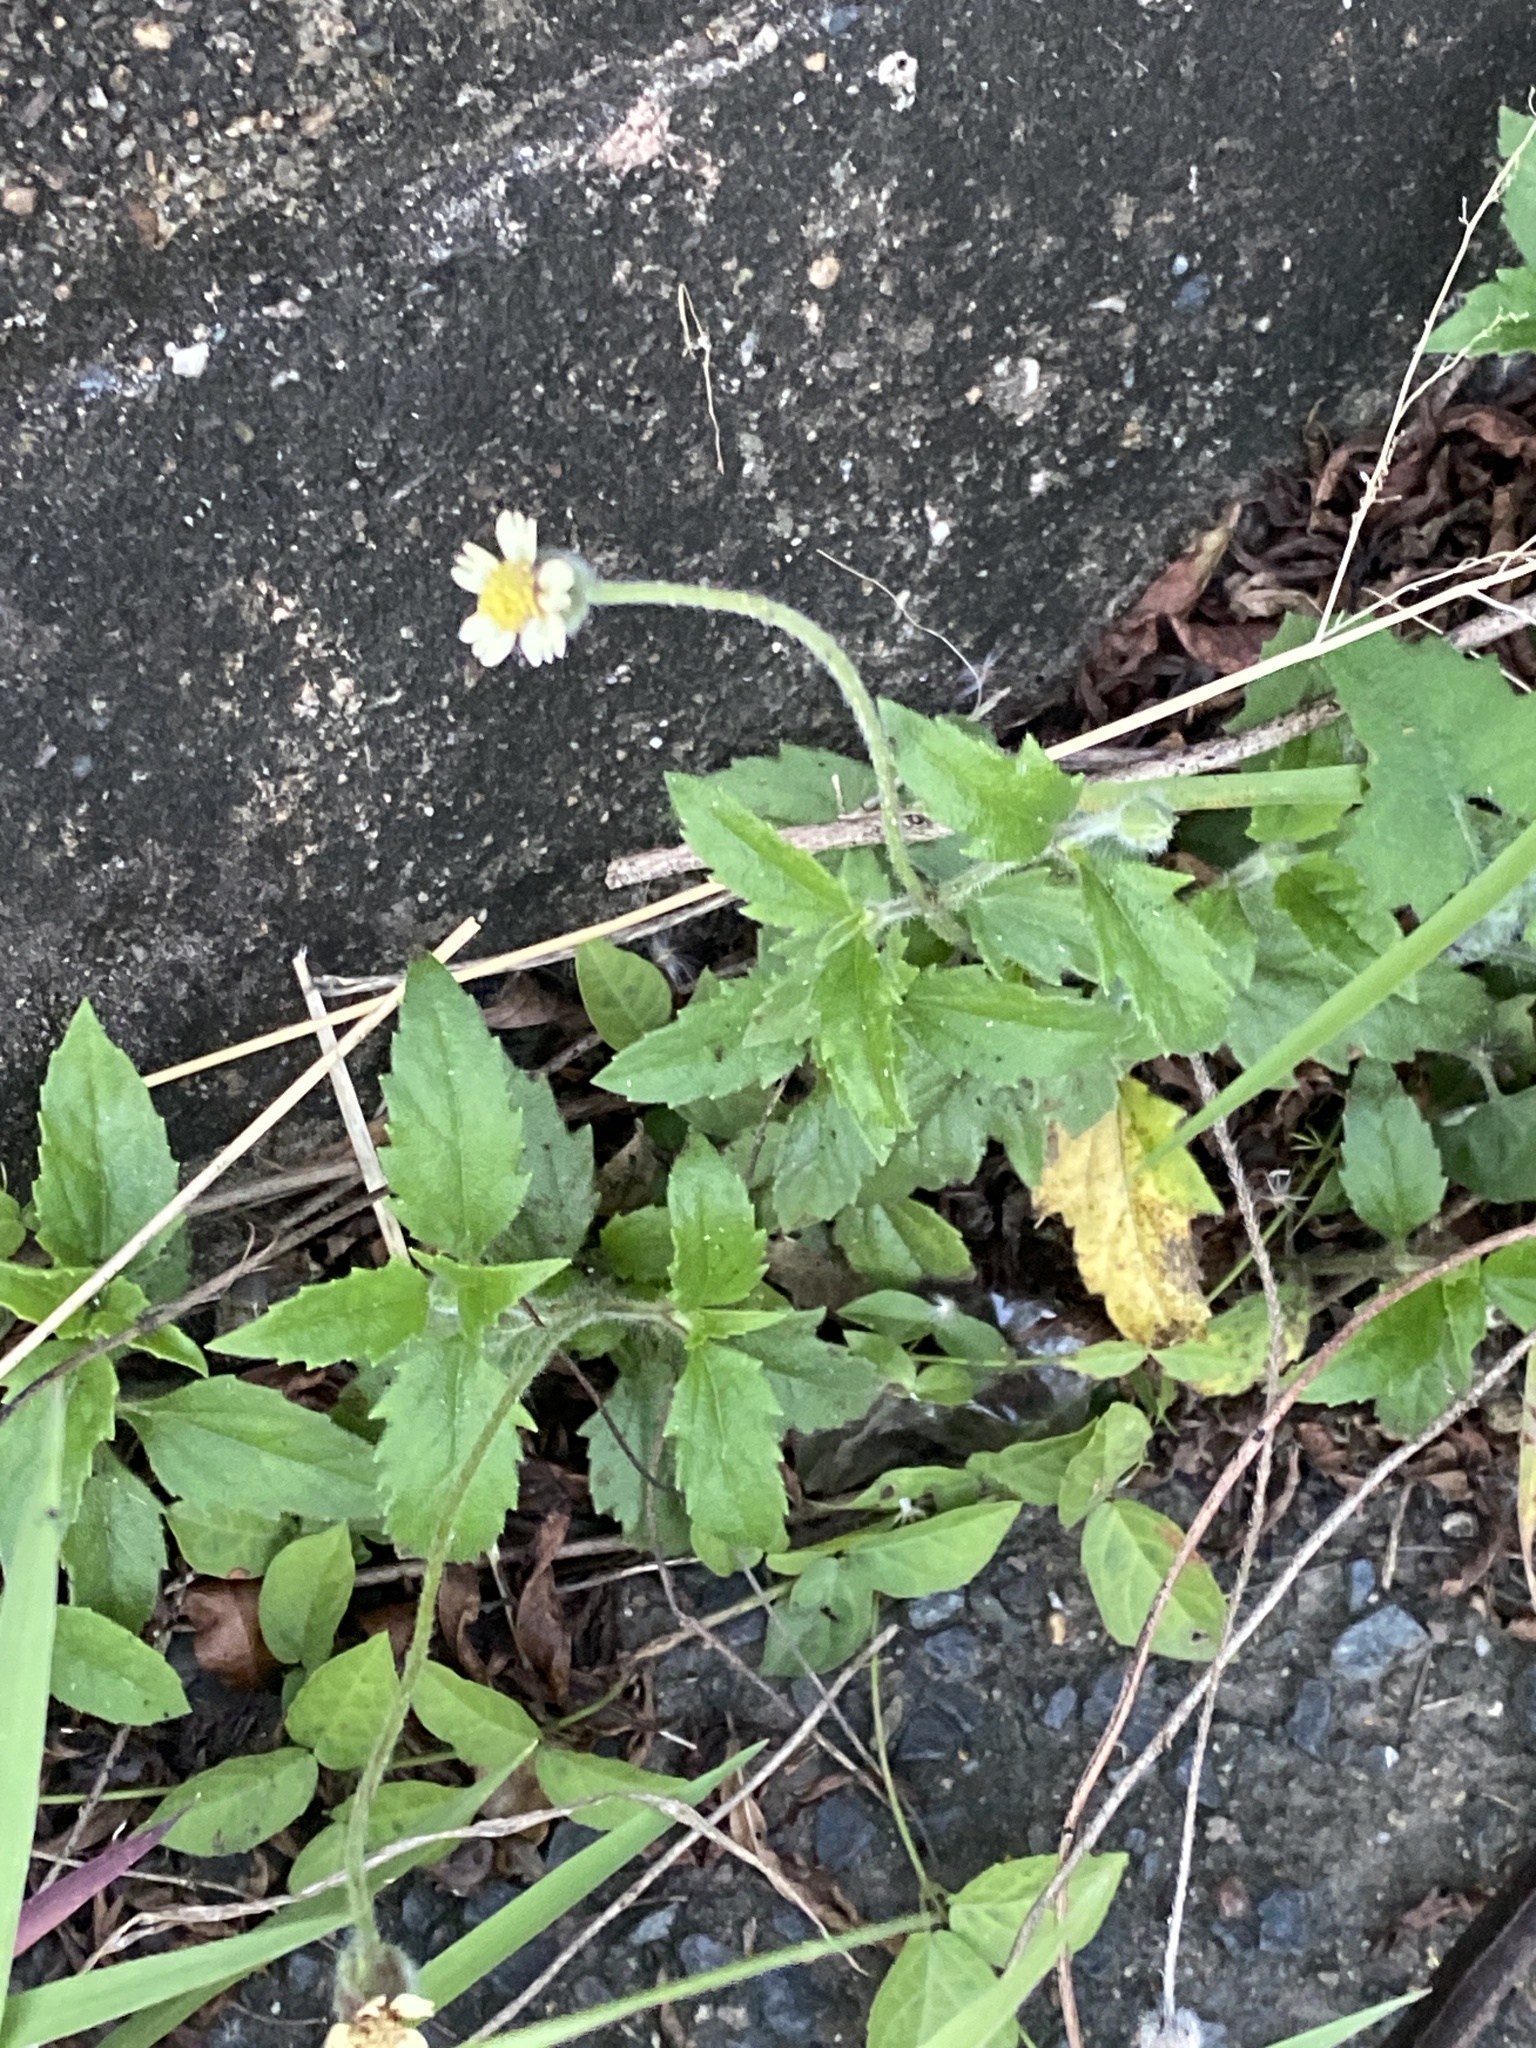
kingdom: Plantae
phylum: Tracheophyta
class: Magnoliopsida
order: Asterales
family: Asteraceae
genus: Tridax
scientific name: Tridax procumbens
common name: Coatbuttons
